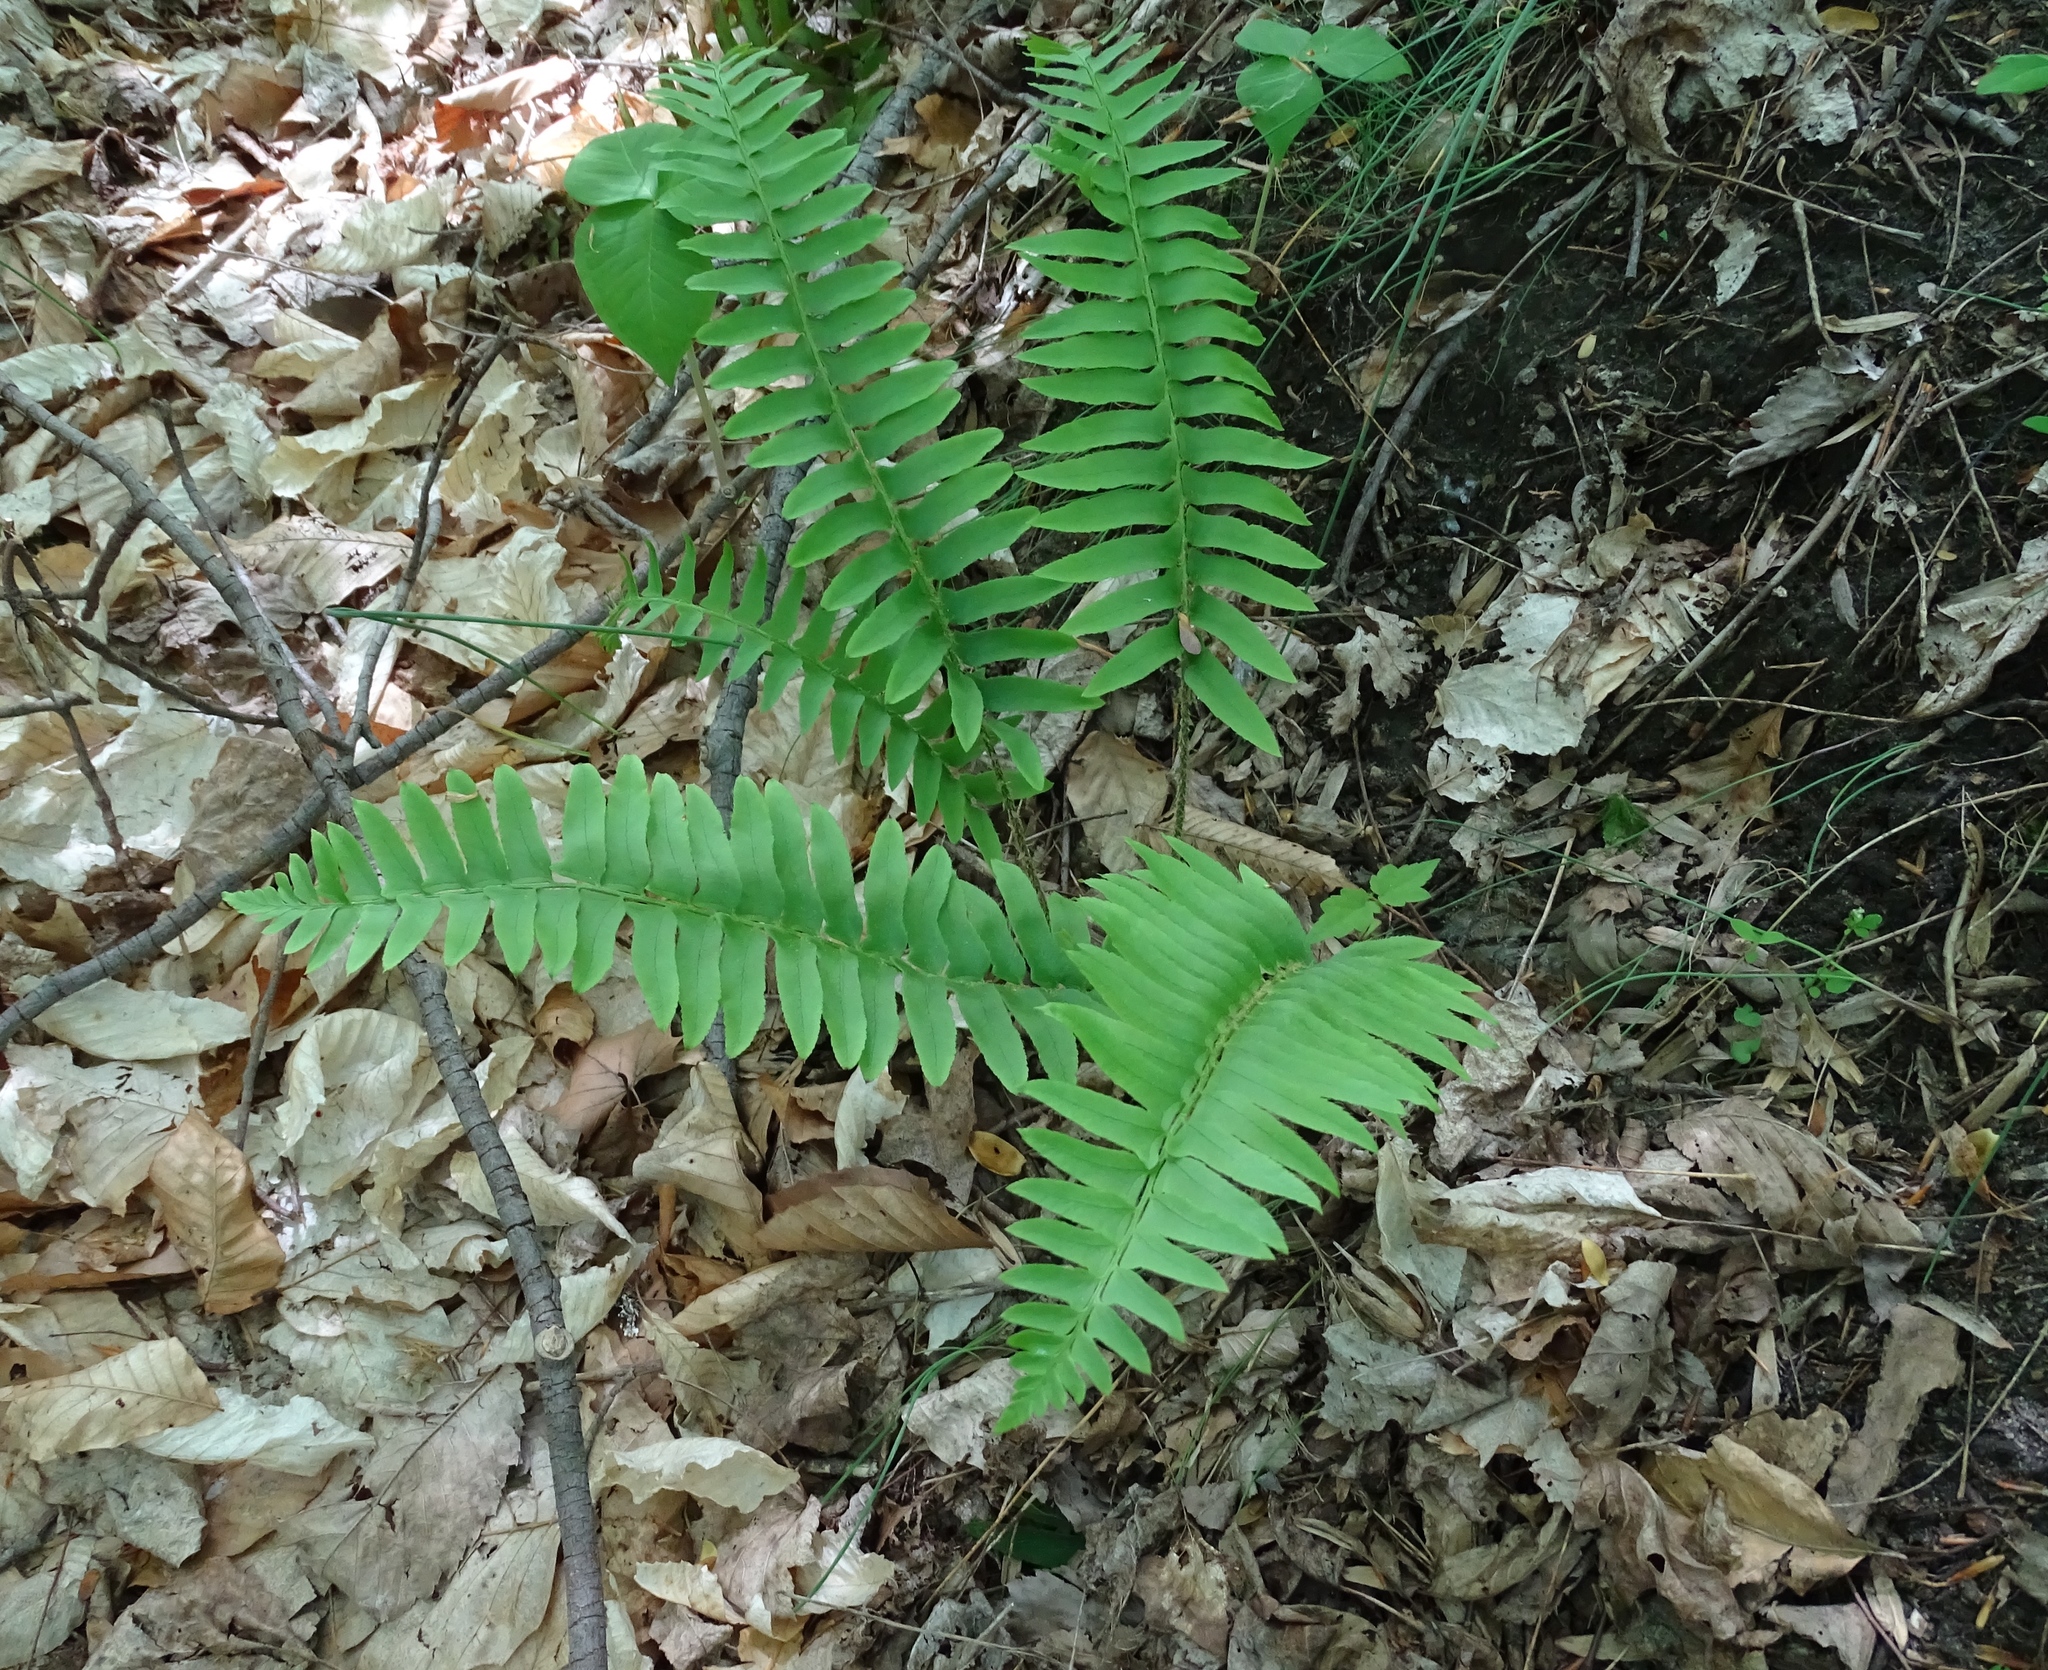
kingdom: Plantae
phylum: Tracheophyta
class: Polypodiopsida
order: Polypodiales
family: Dryopteridaceae
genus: Polystichum
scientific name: Polystichum acrostichoides
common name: Christmas fern
